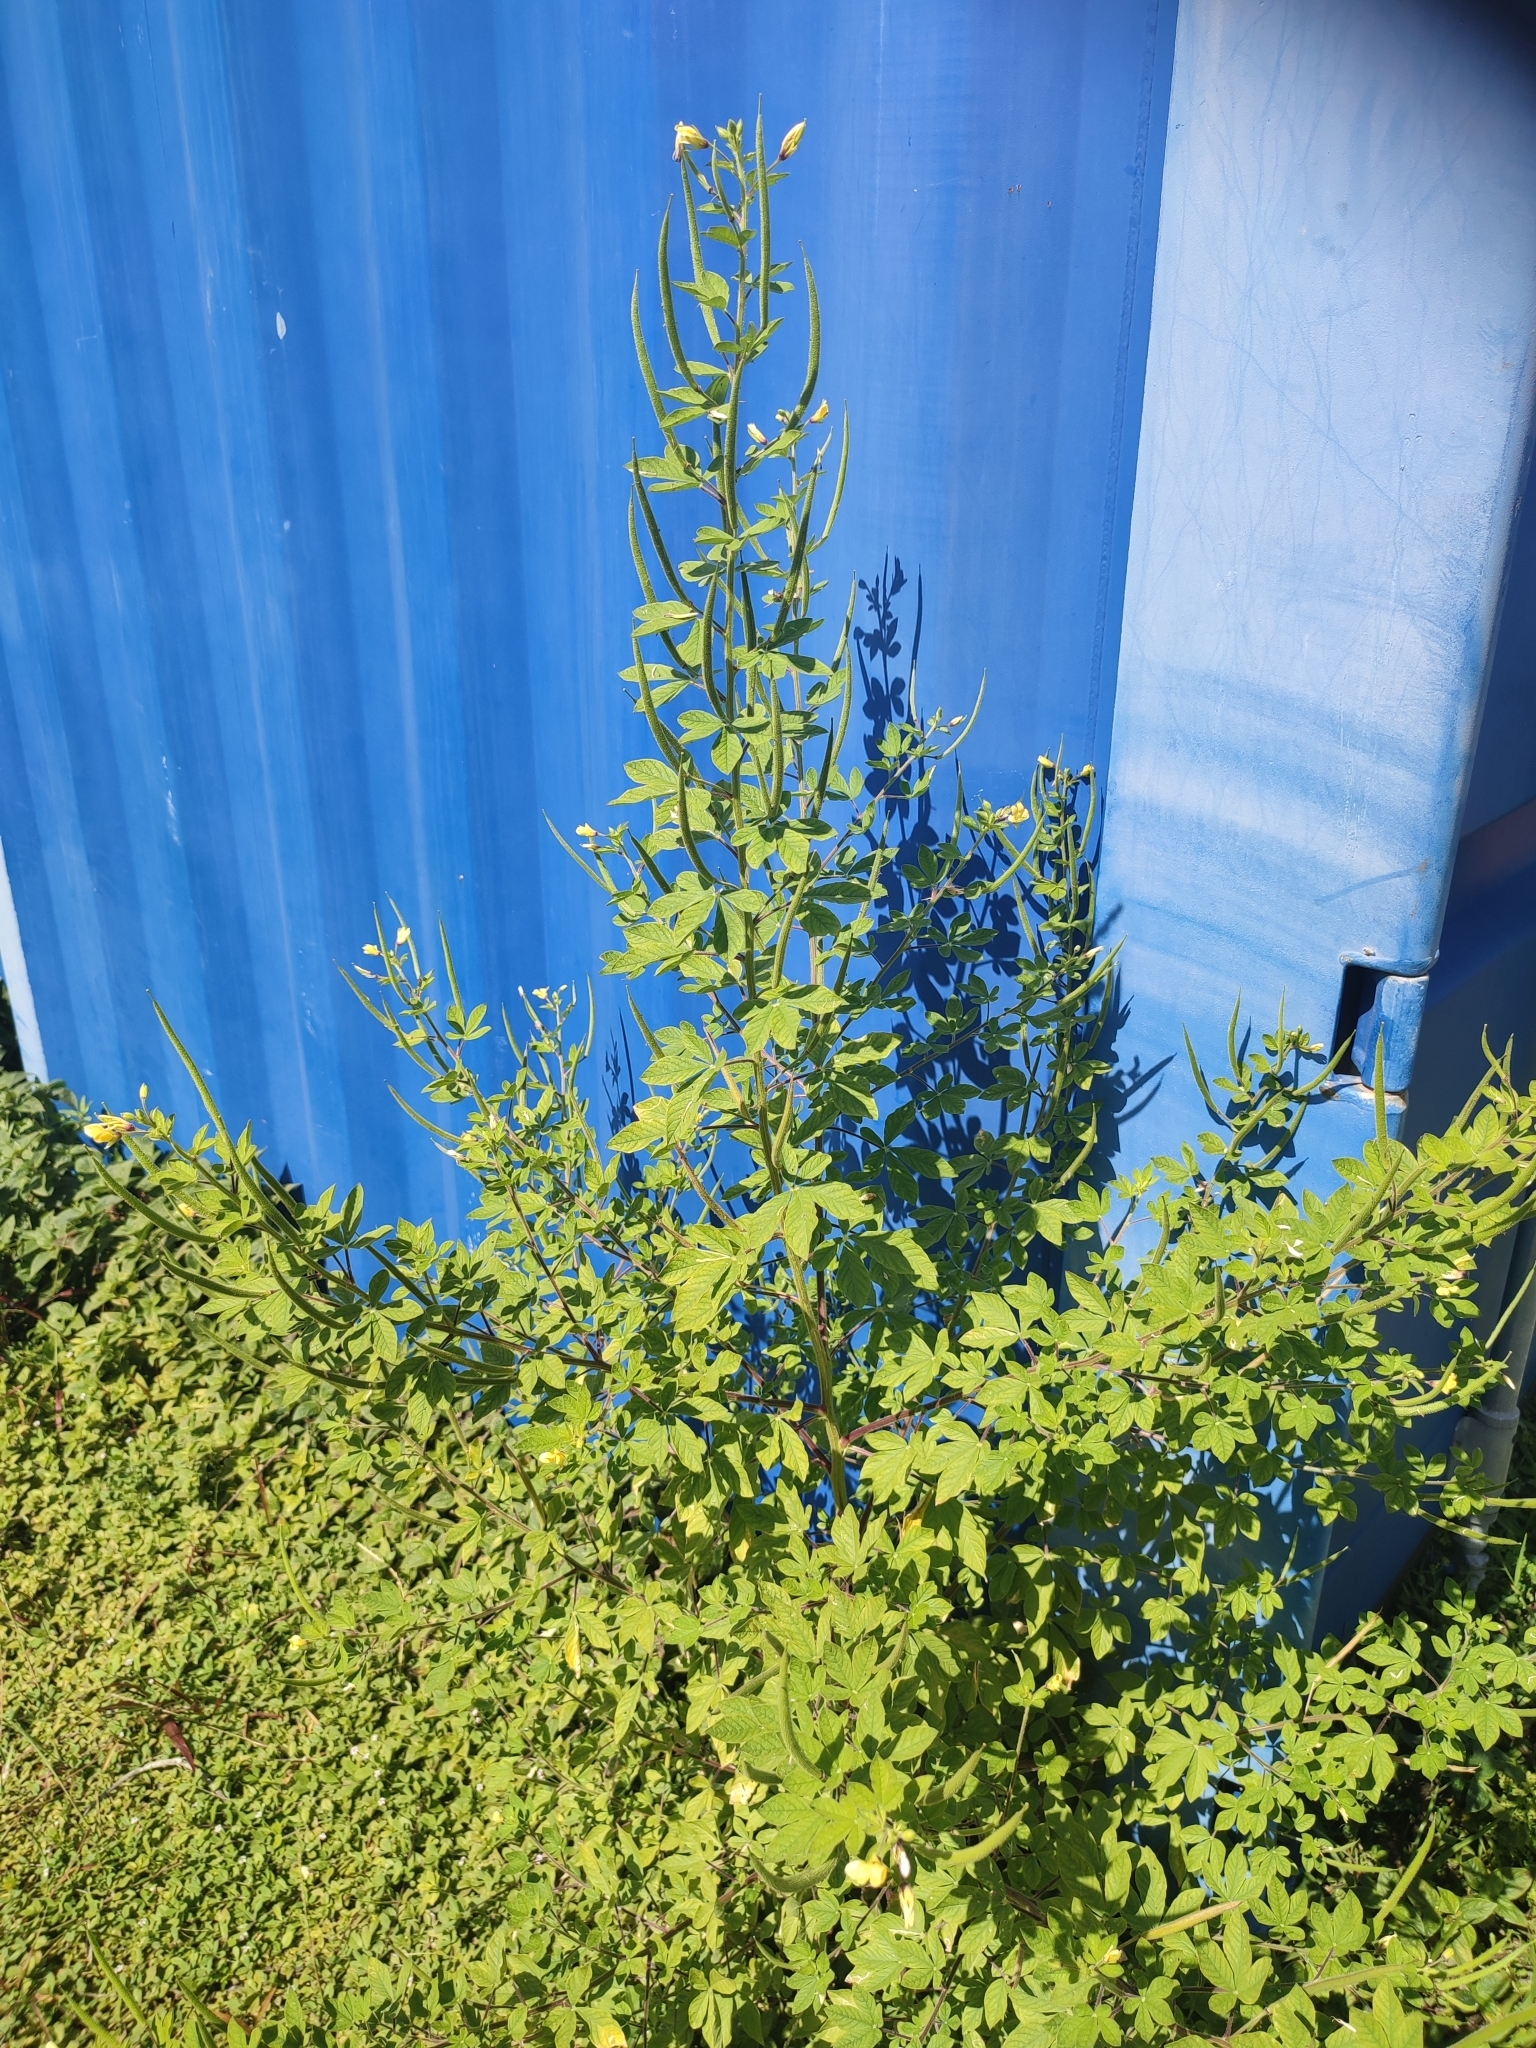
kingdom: Plantae
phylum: Tracheophyta
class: Magnoliopsida
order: Brassicales
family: Cleomaceae
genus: Arivela
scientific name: Arivela viscosa
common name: Asian spiderflower
